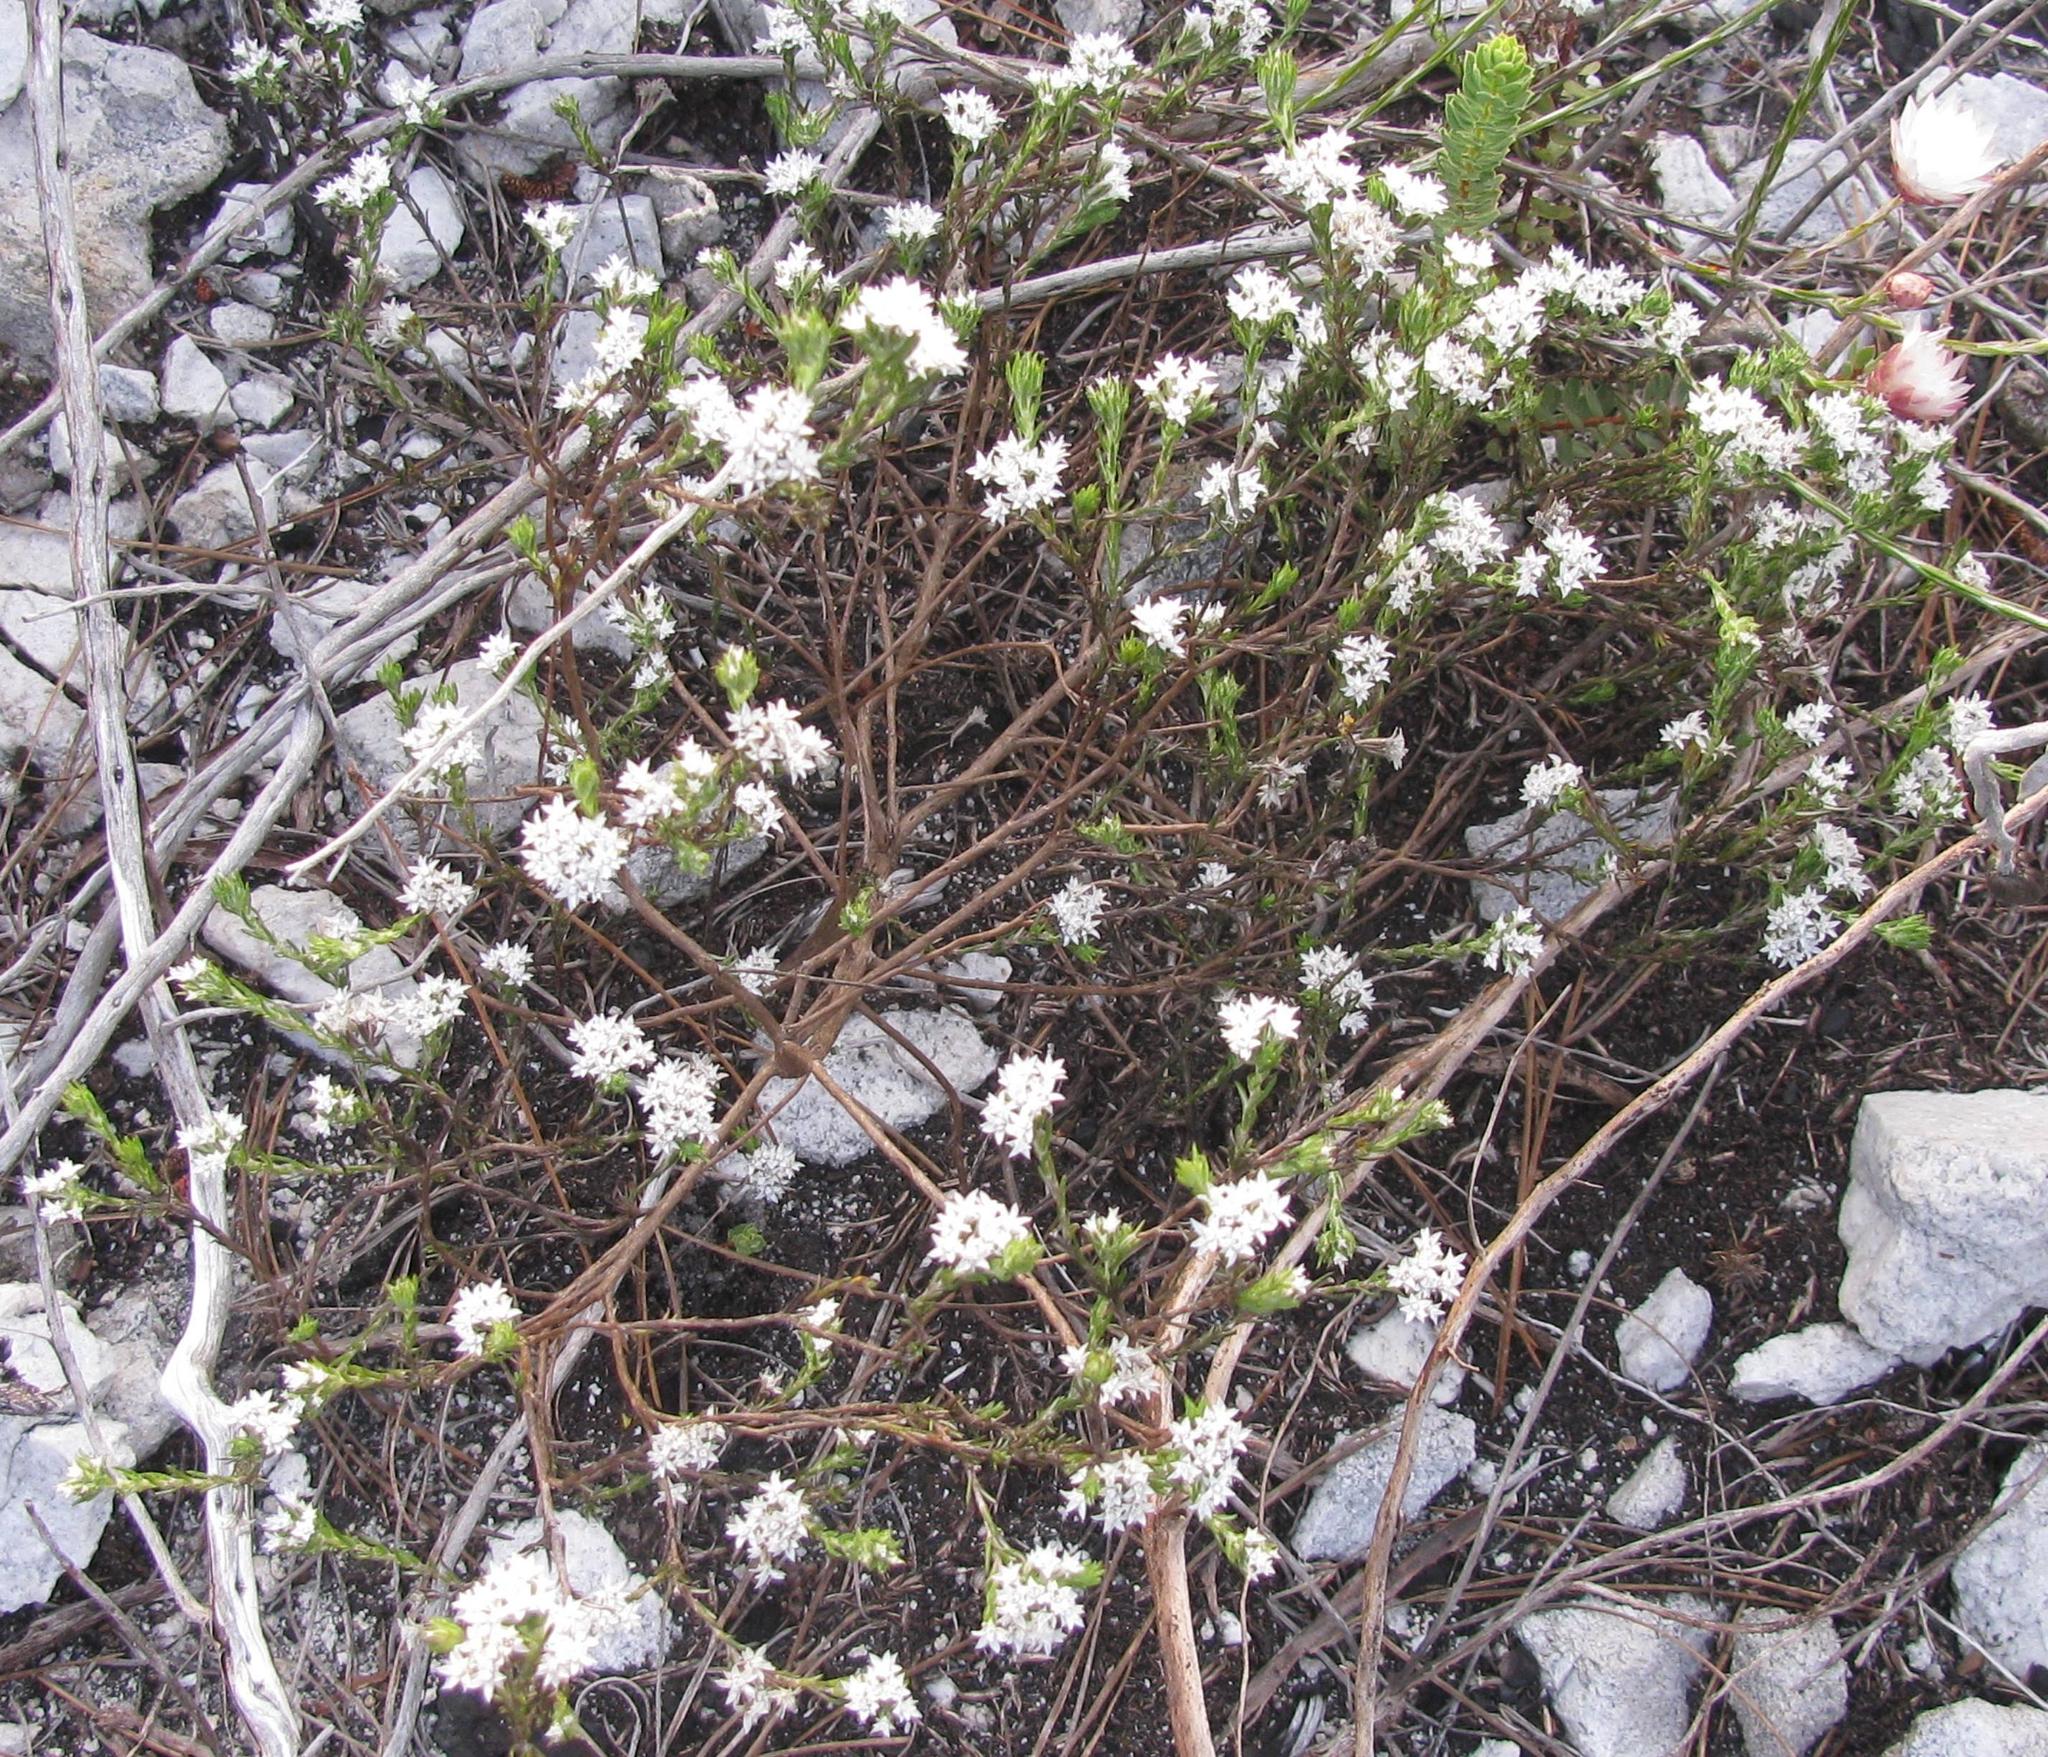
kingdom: Plantae
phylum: Tracheophyta
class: Magnoliopsida
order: Asterales
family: Asteraceae
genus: Metalasia
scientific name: Metalasia quinqueflora
